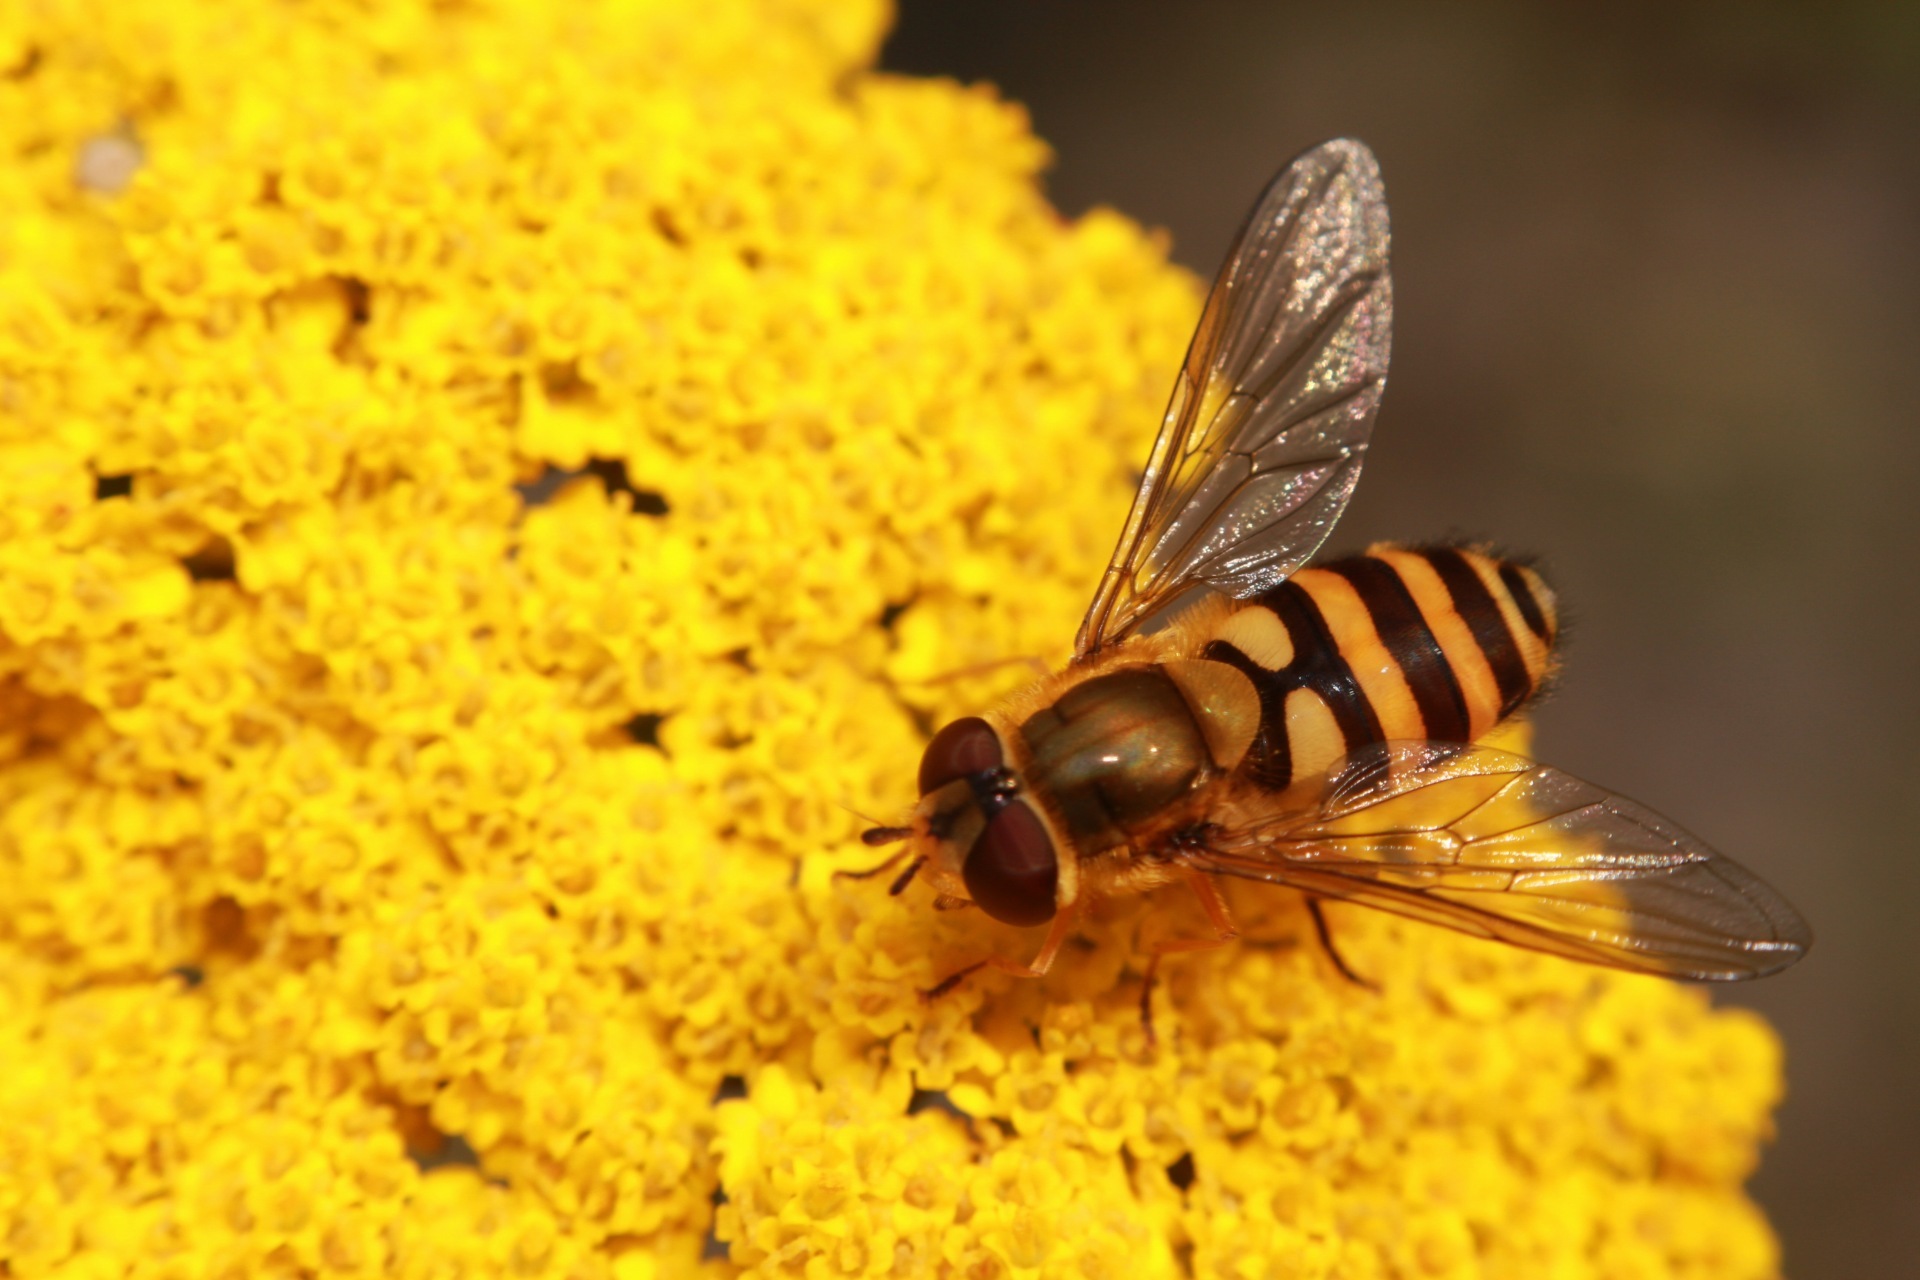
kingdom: Animalia
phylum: Arthropoda
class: Insecta
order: Diptera
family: Syrphidae
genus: Syrphus
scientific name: Syrphus
